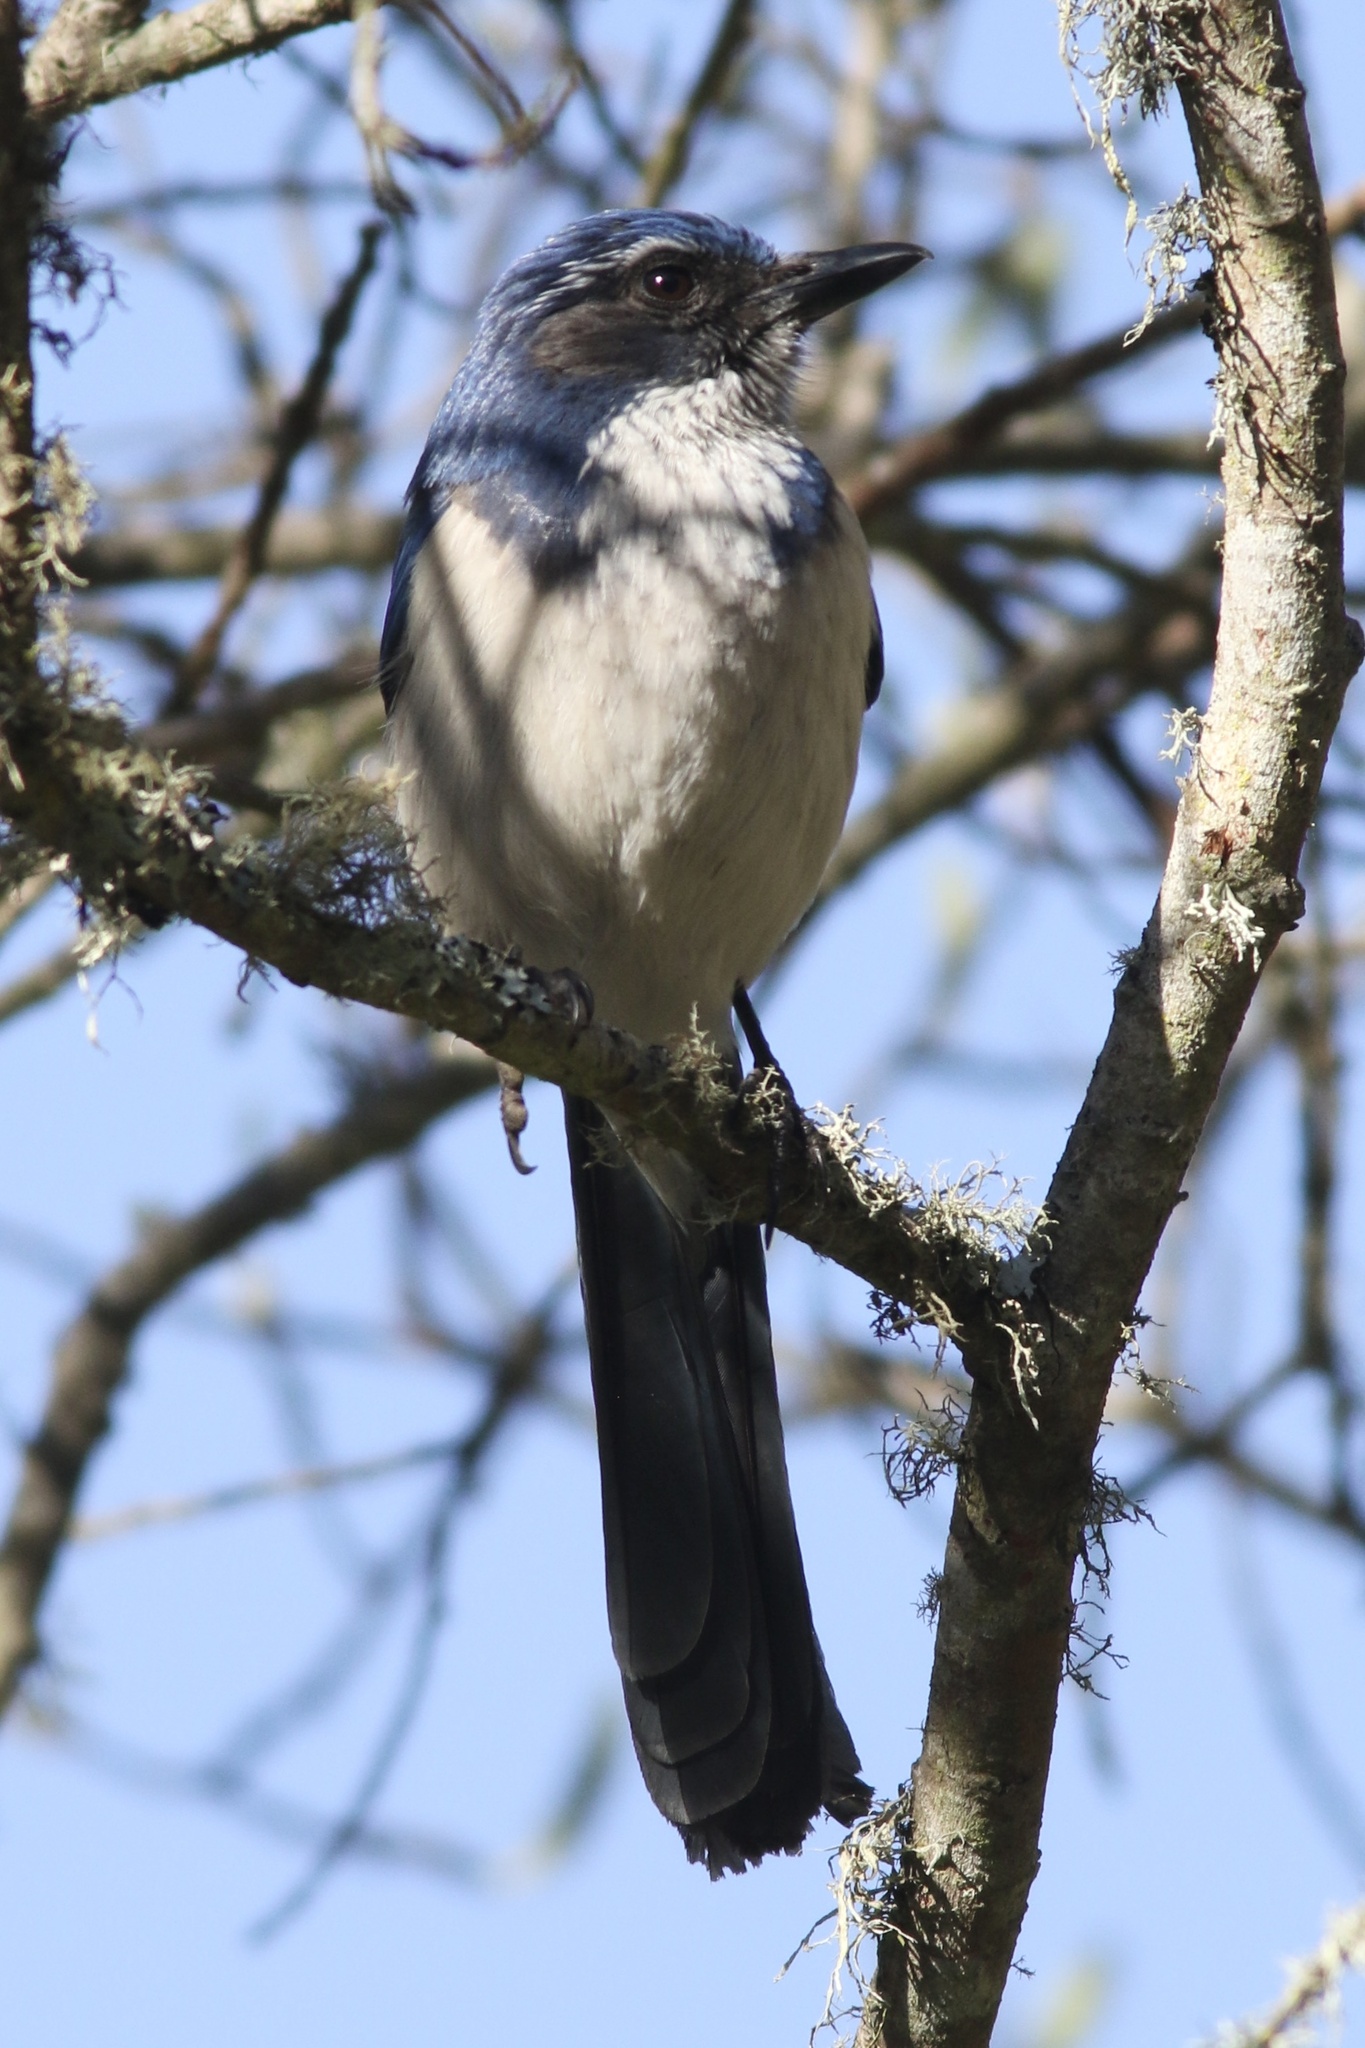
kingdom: Animalia
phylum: Chordata
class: Aves
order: Passeriformes
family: Corvidae
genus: Aphelocoma
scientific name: Aphelocoma californica
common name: California scrub-jay
